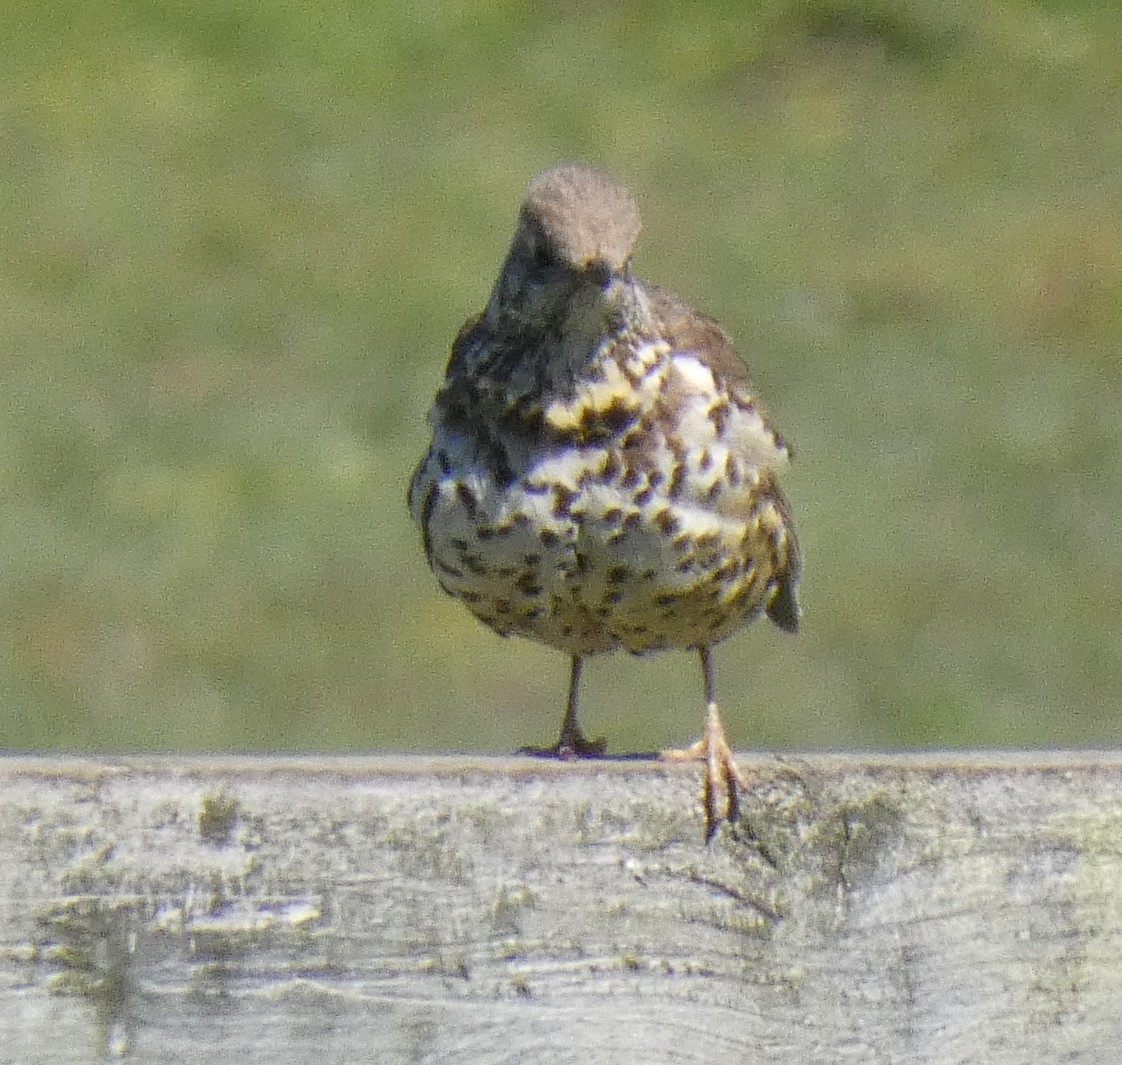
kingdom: Animalia
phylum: Chordata
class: Aves
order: Passeriformes
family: Turdidae
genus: Turdus
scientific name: Turdus viscivorus
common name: Mistle thrush
